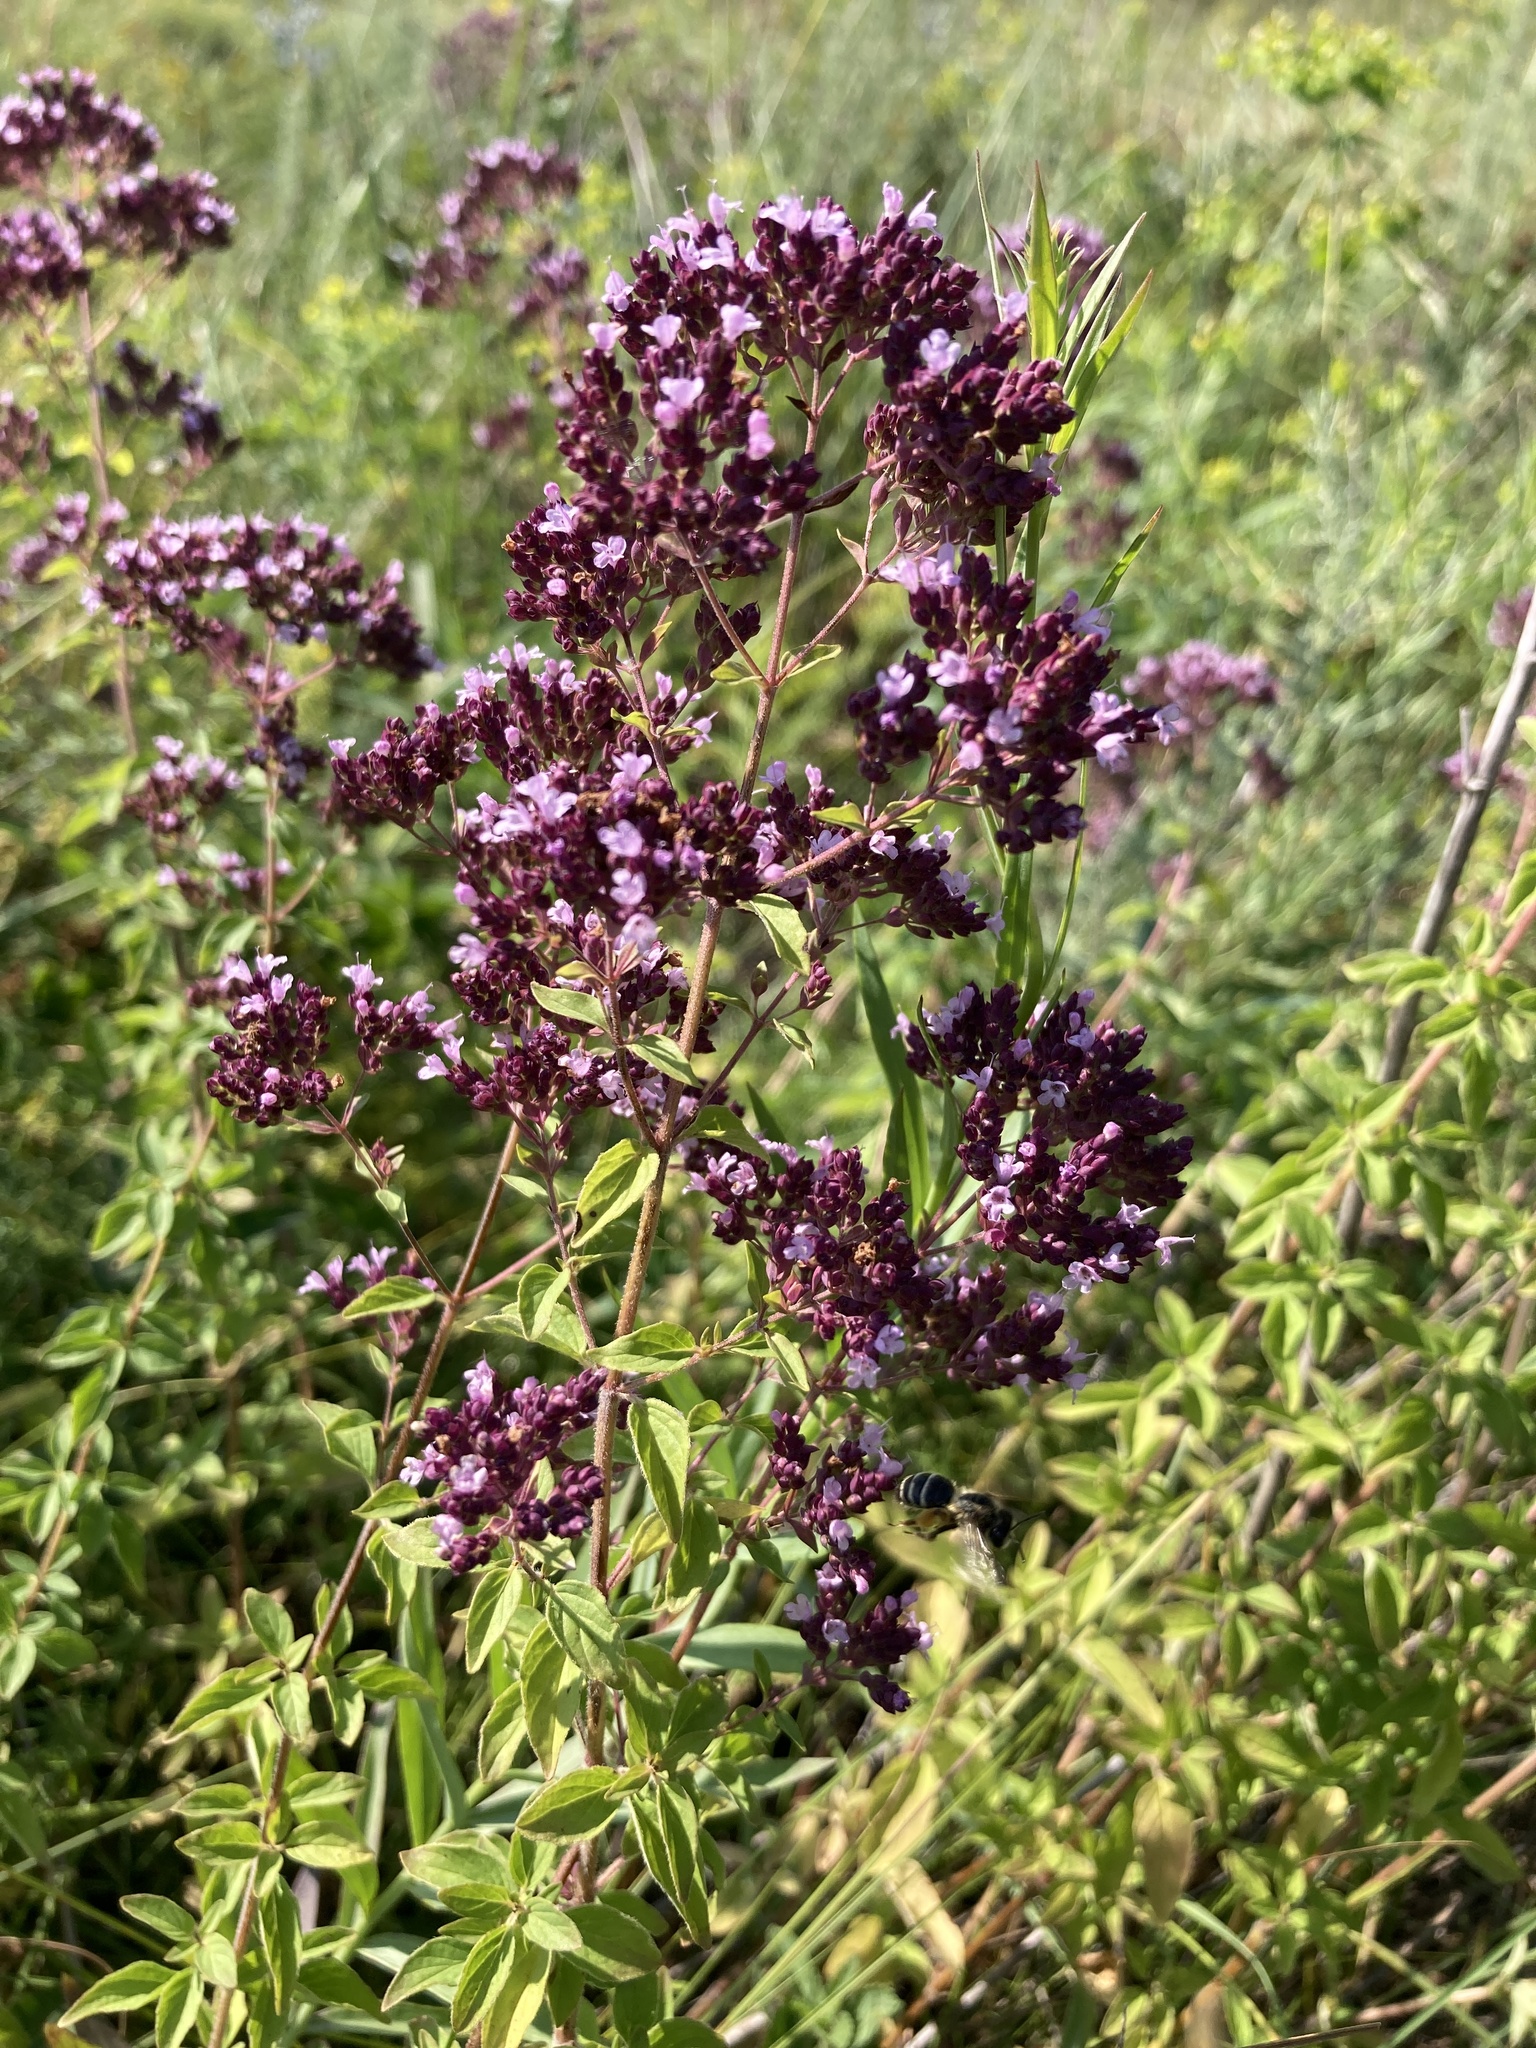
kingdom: Plantae
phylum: Tracheophyta
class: Magnoliopsida
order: Lamiales
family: Lamiaceae
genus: Origanum
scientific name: Origanum vulgare
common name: Wild marjoram
